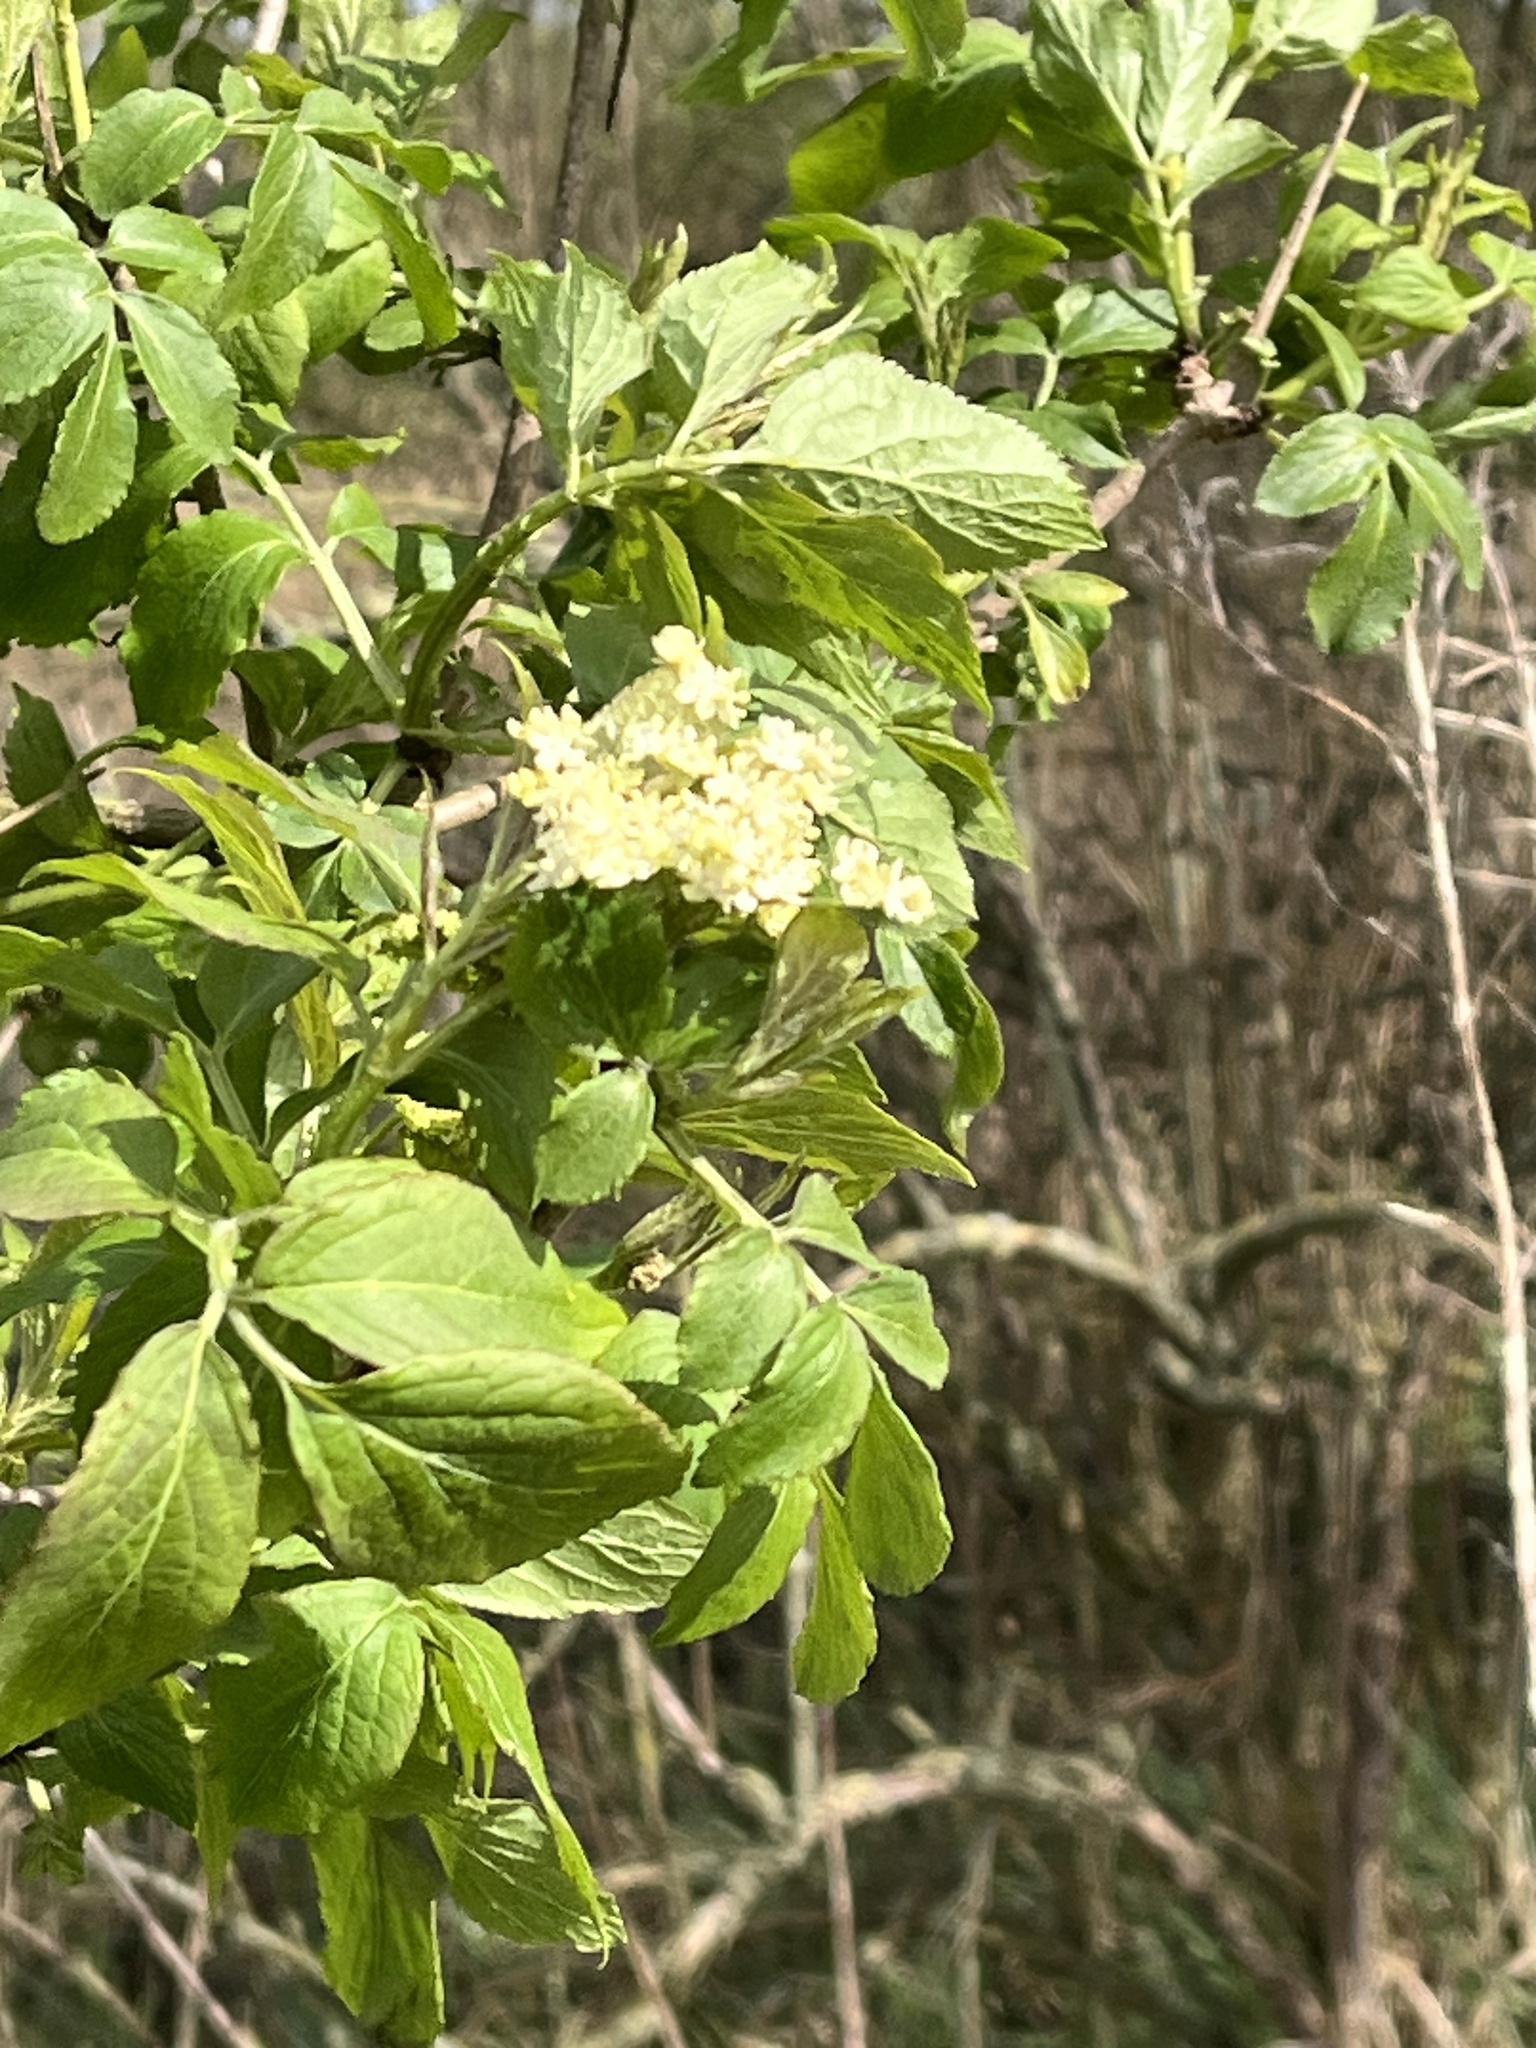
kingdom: Plantae
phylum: Tracheophyta
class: Magnoliopsida
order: Dipsacales
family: Viburnaceae
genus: Sambucus
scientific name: Sambucus nigra
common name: Elder
